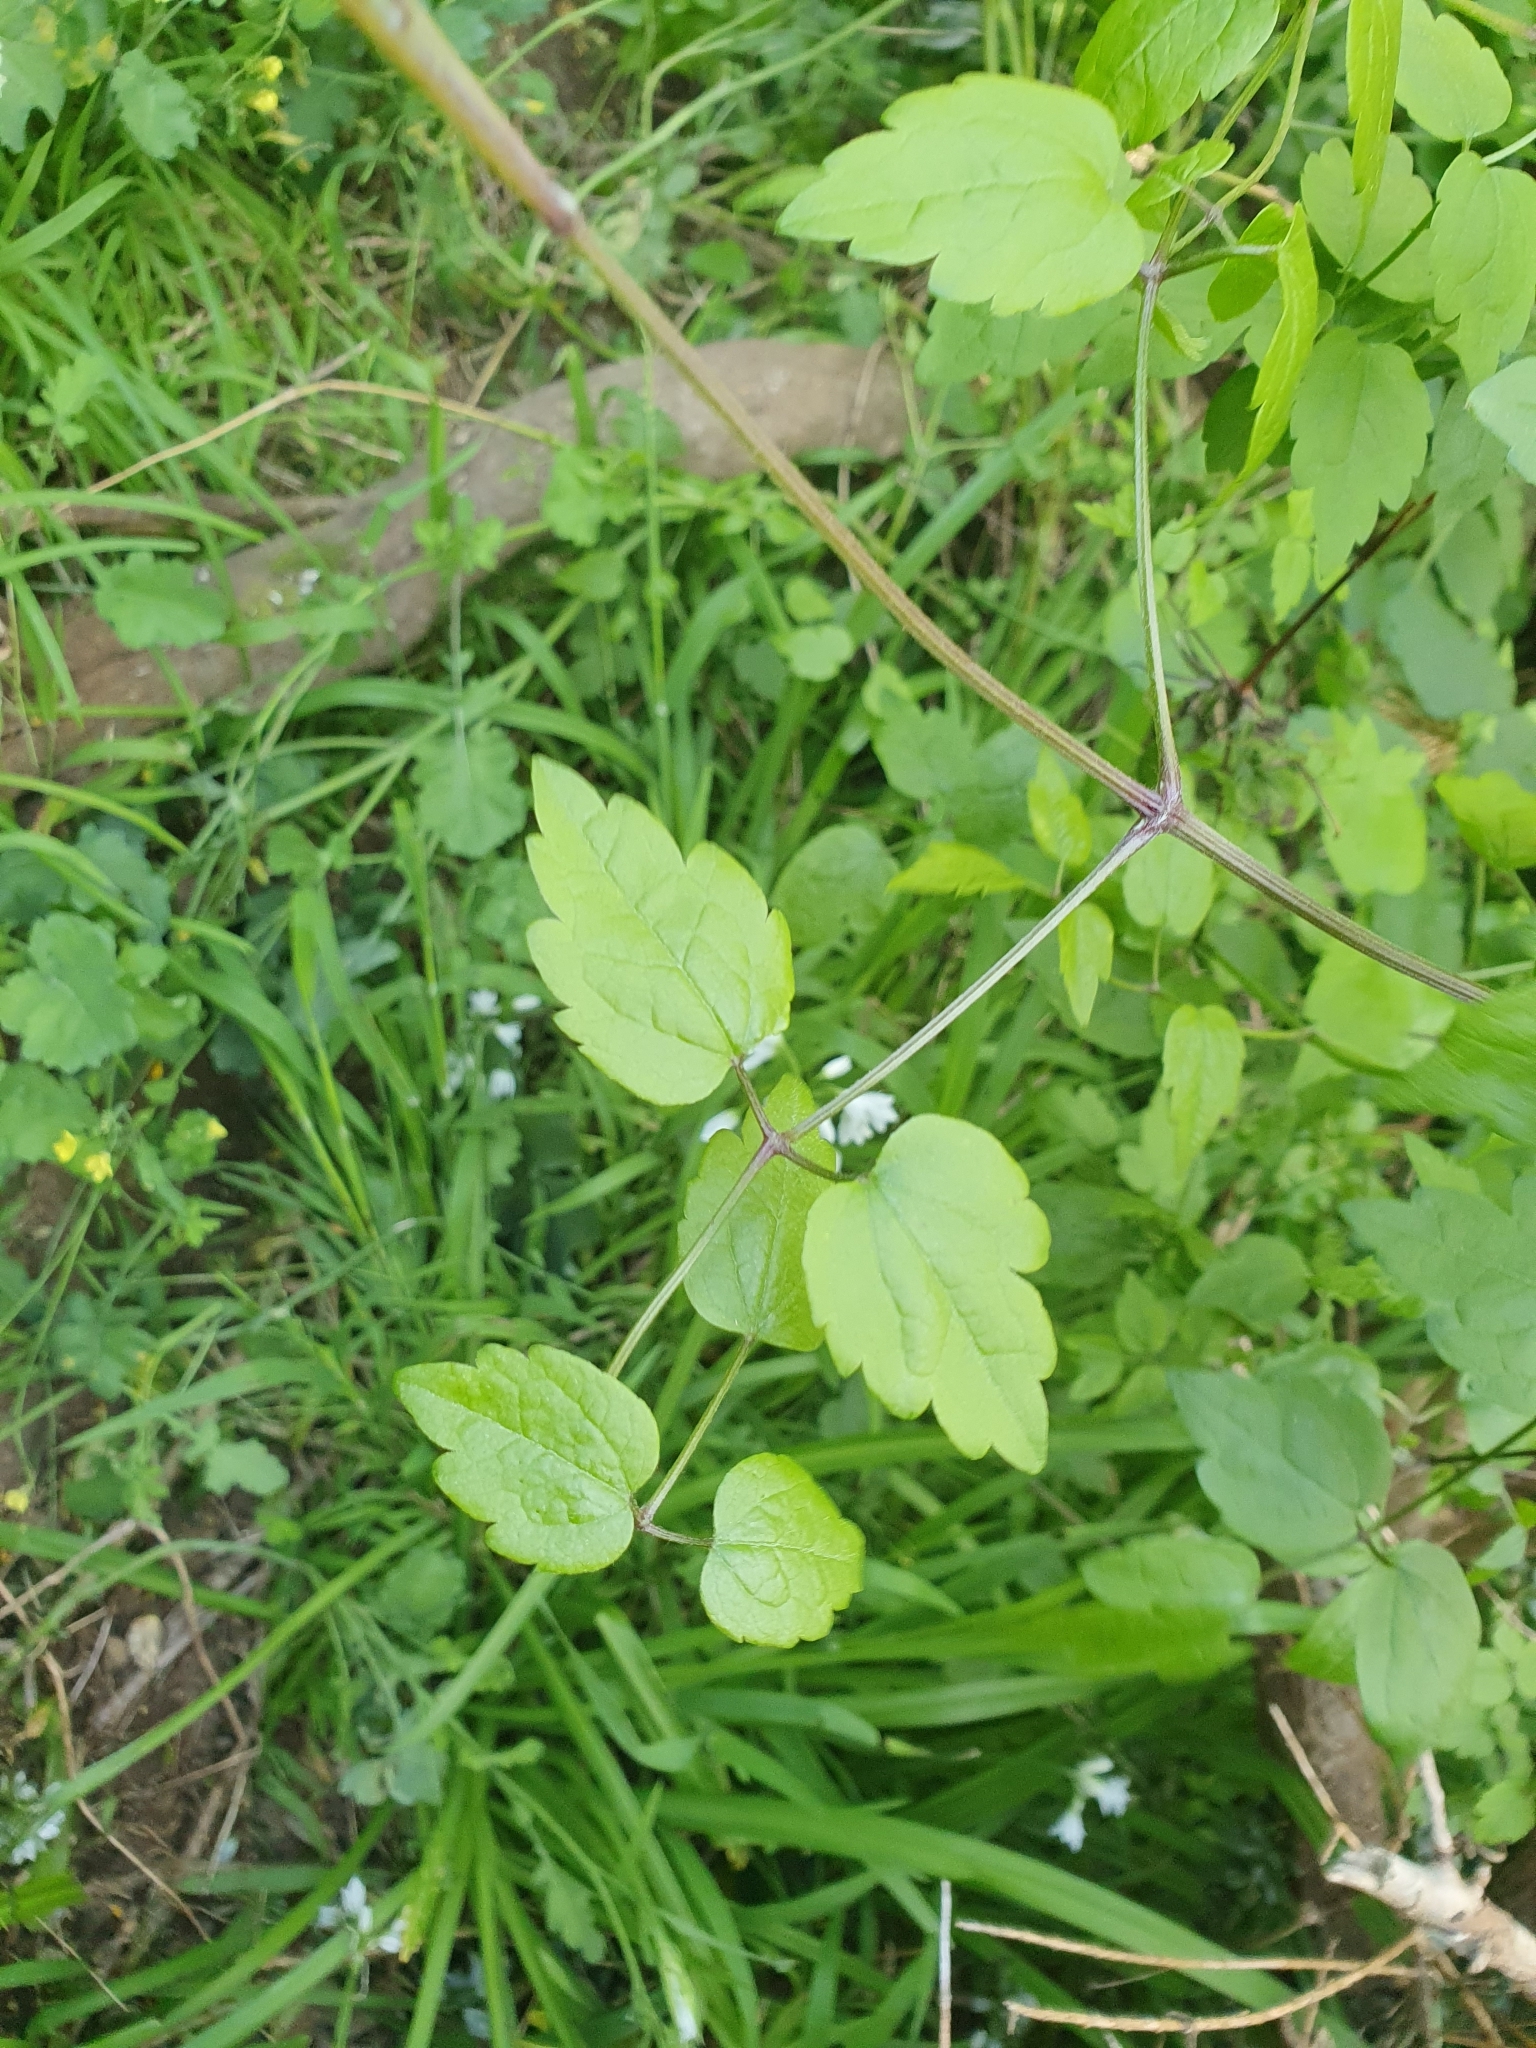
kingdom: Plantae
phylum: Tracheophyta
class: Magnoliopsida
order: Ranunculales
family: Ranunculaceae
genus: Clematis
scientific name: Clematis vitalba
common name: Evergreen clematis
